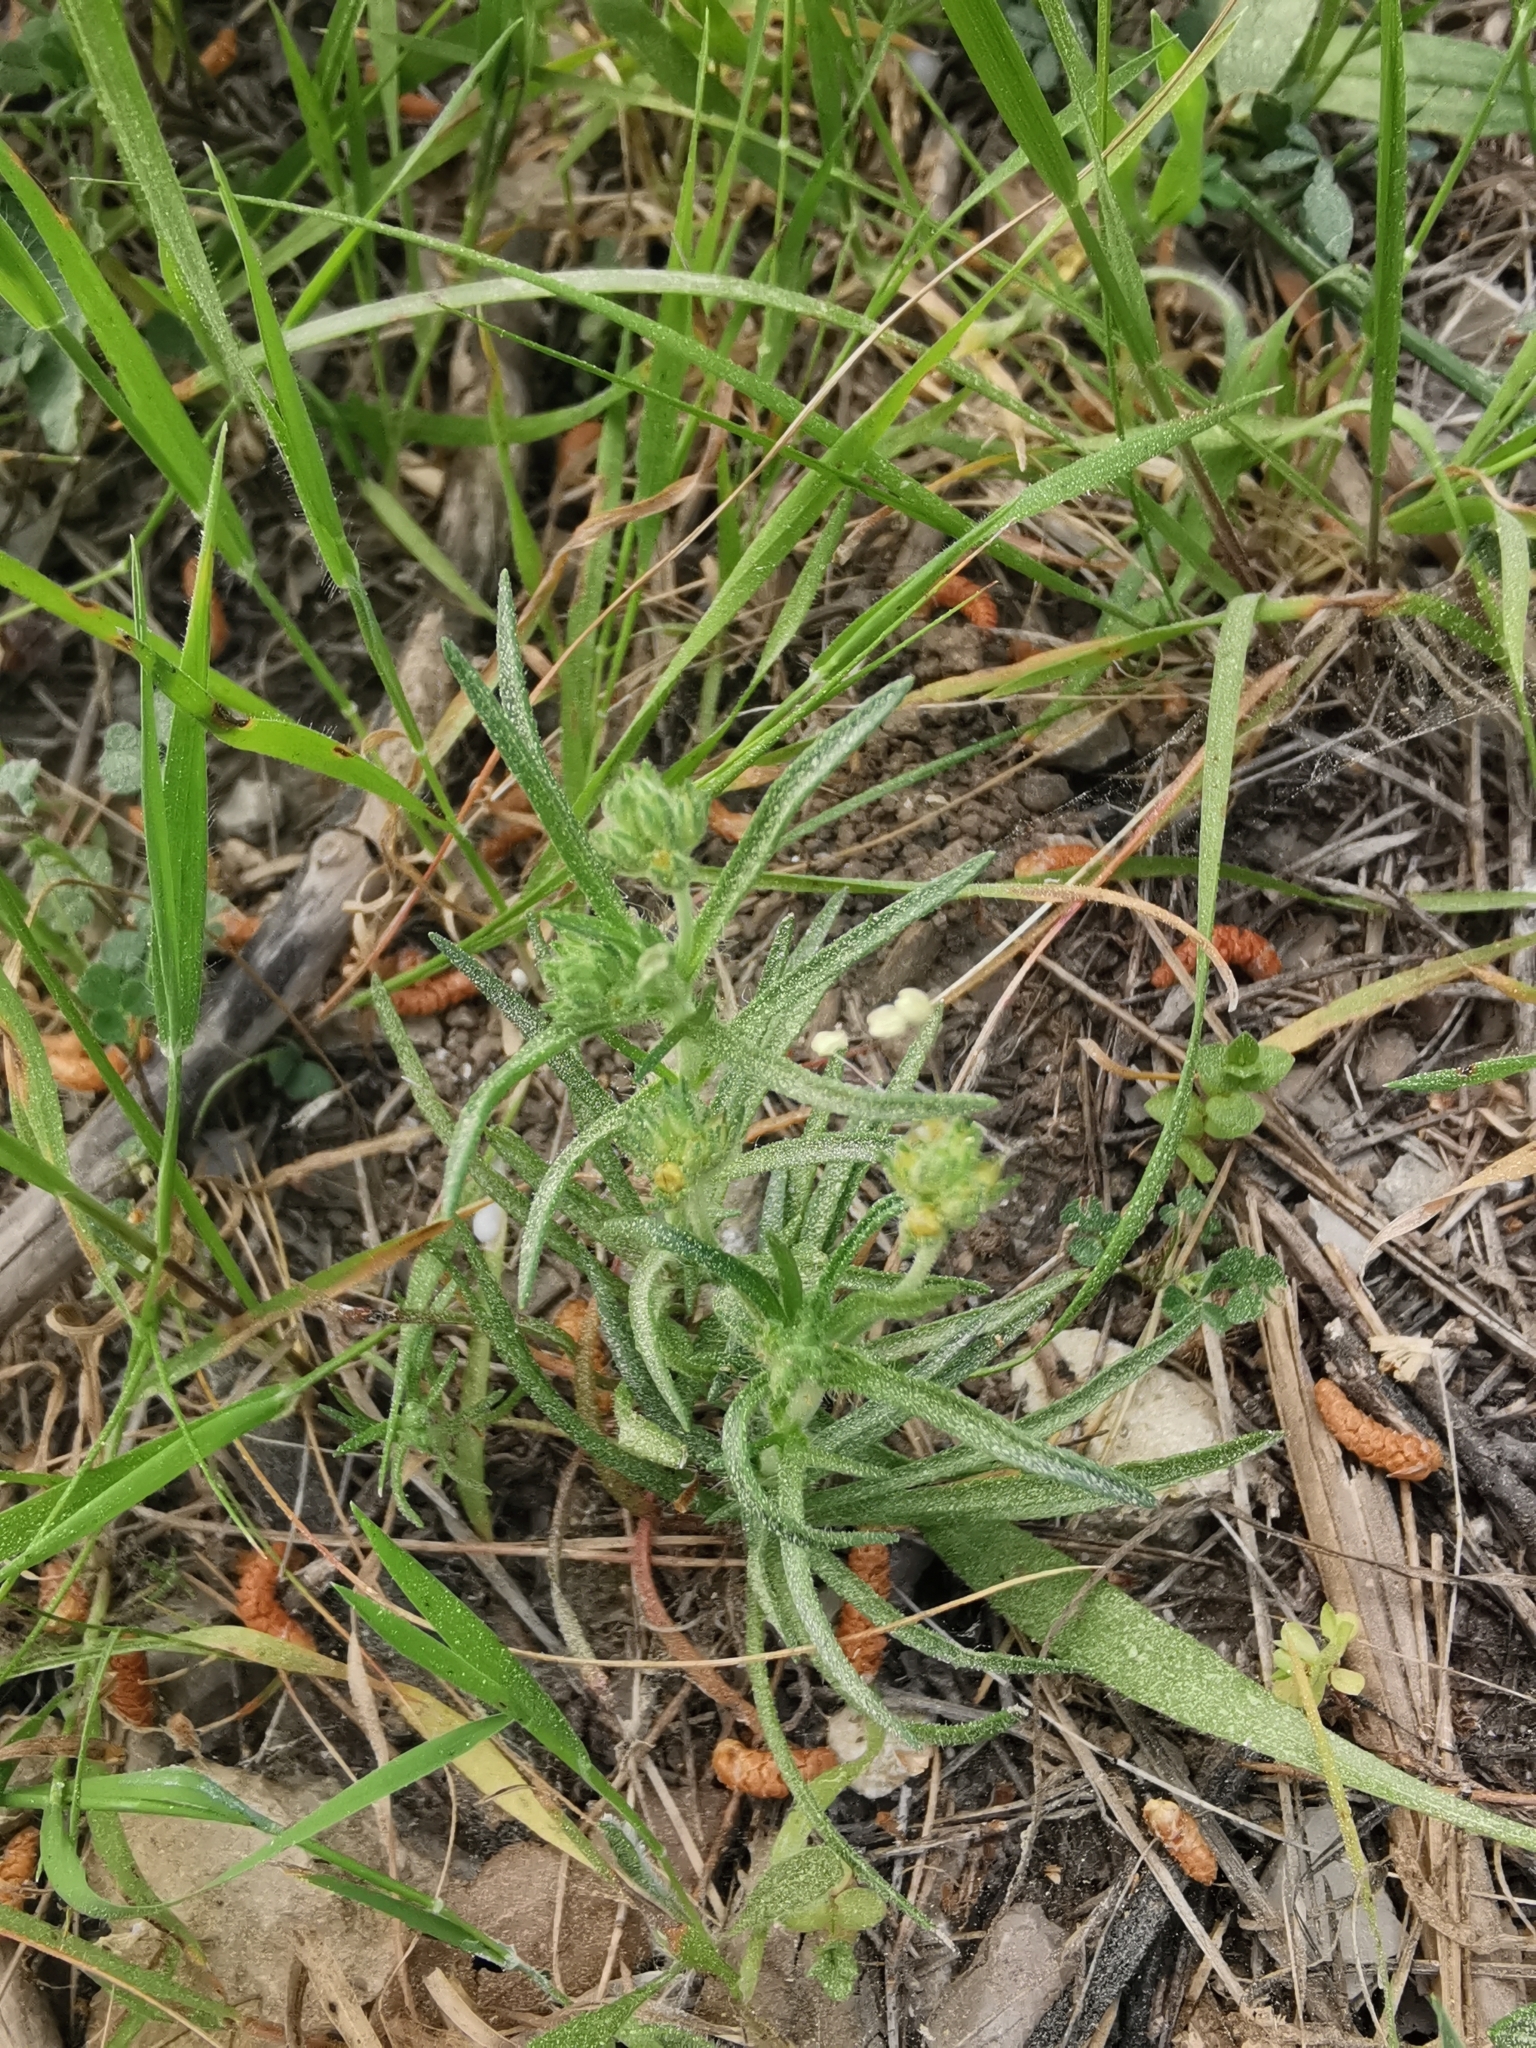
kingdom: Plantae
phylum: Tracheophyta
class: Magnoliopsida
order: Lamiales
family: Plantaginaceae
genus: Plantago
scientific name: Plantago afra
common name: Glandular plantain
